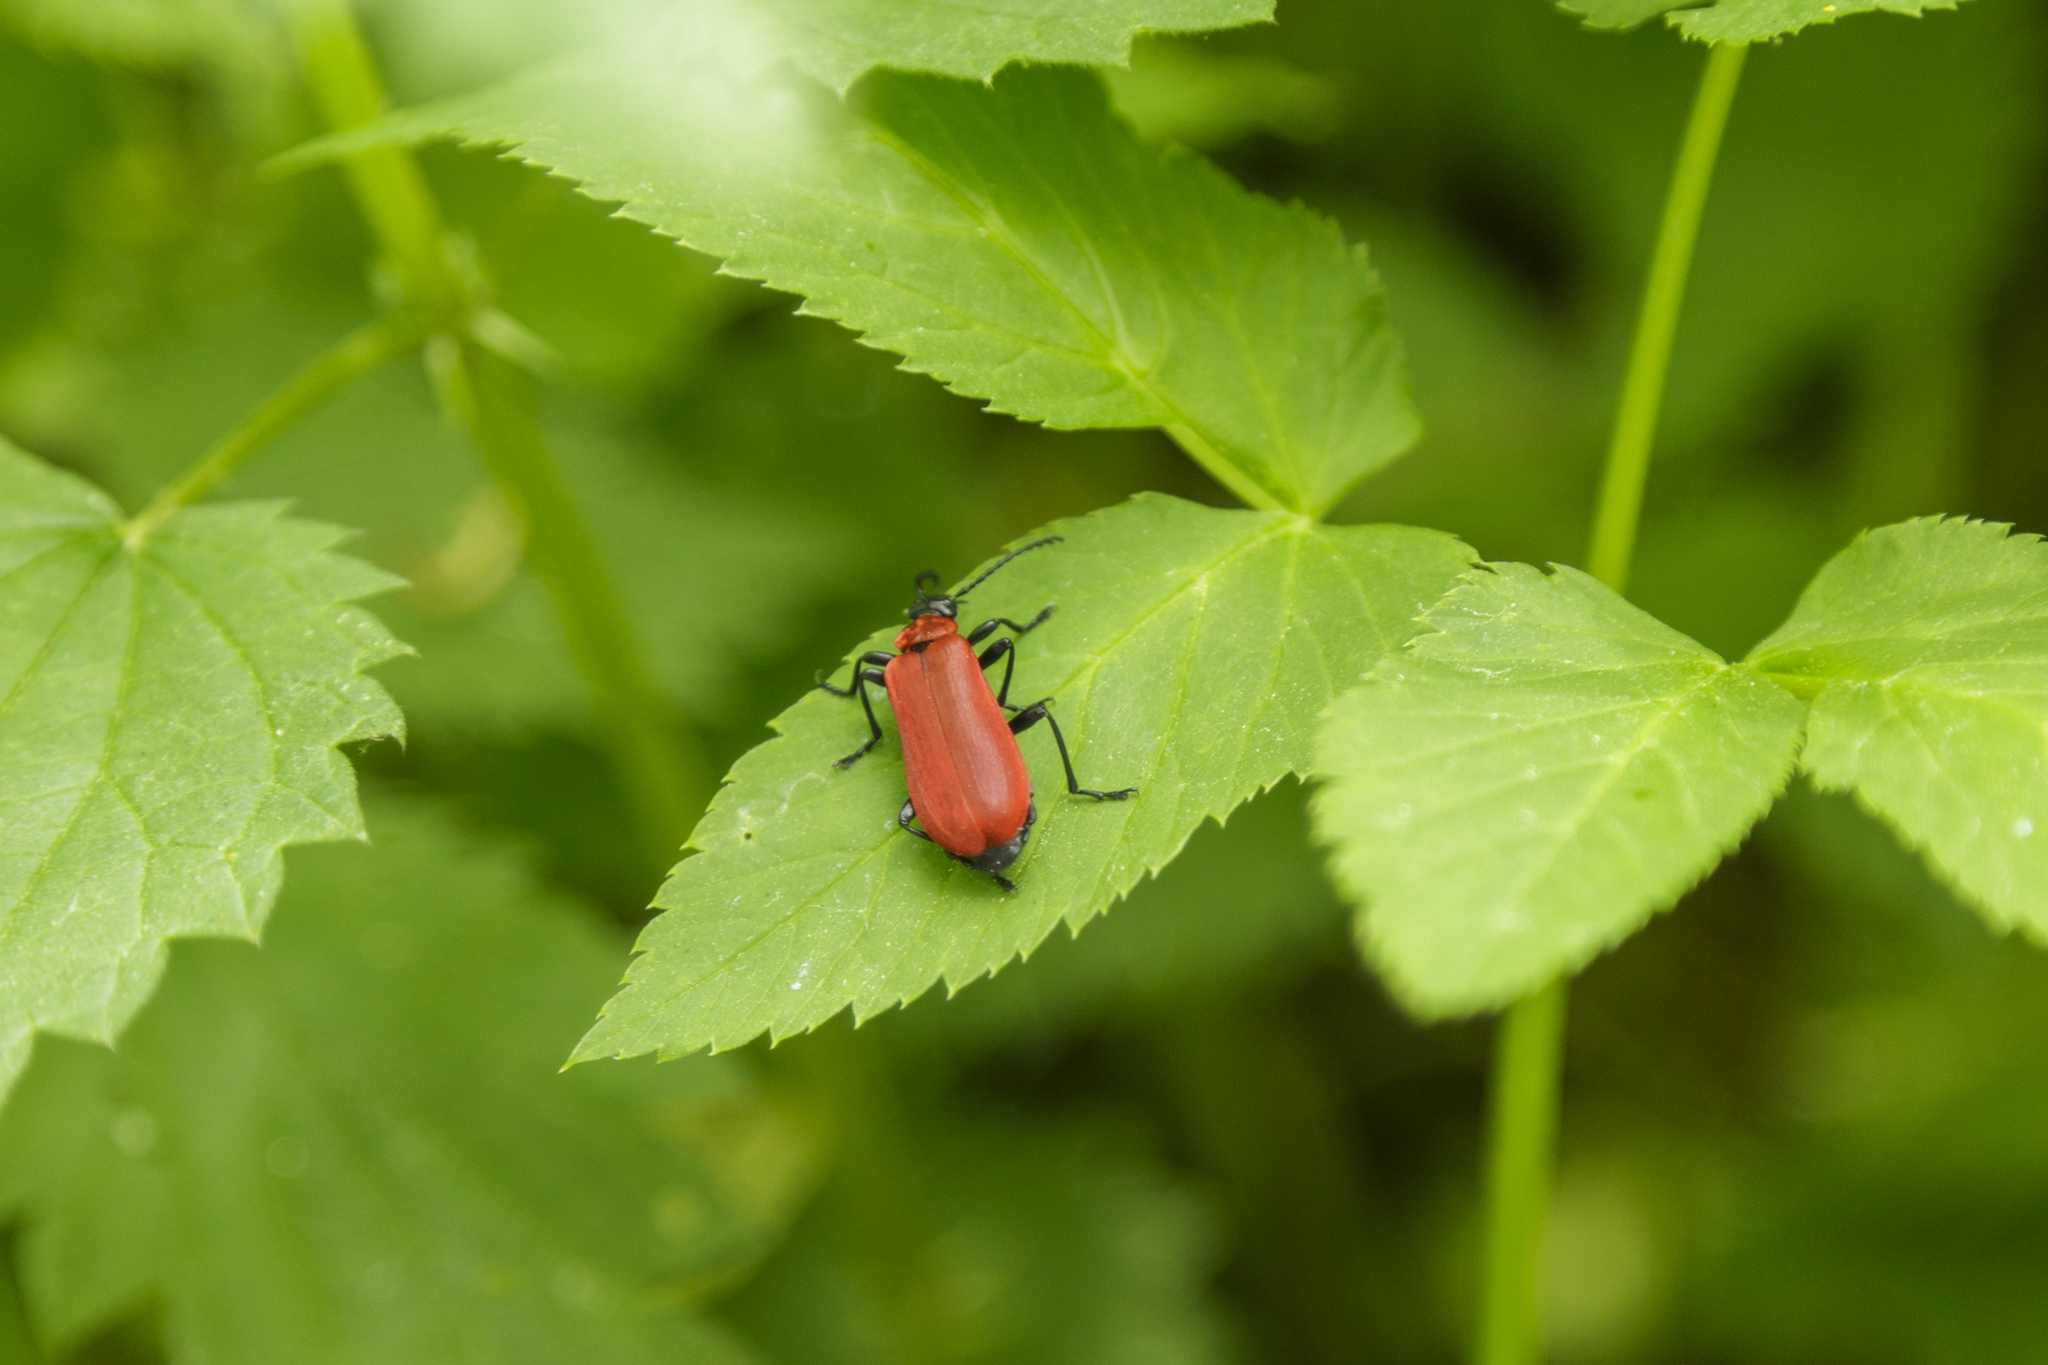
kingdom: Animalia
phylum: Arthropoda
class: Insecta
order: Coleoptera
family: Pyrochroidae
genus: Pyrochroa
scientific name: Pyrochroa coccinea
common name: Black-headed cardinal beetle
